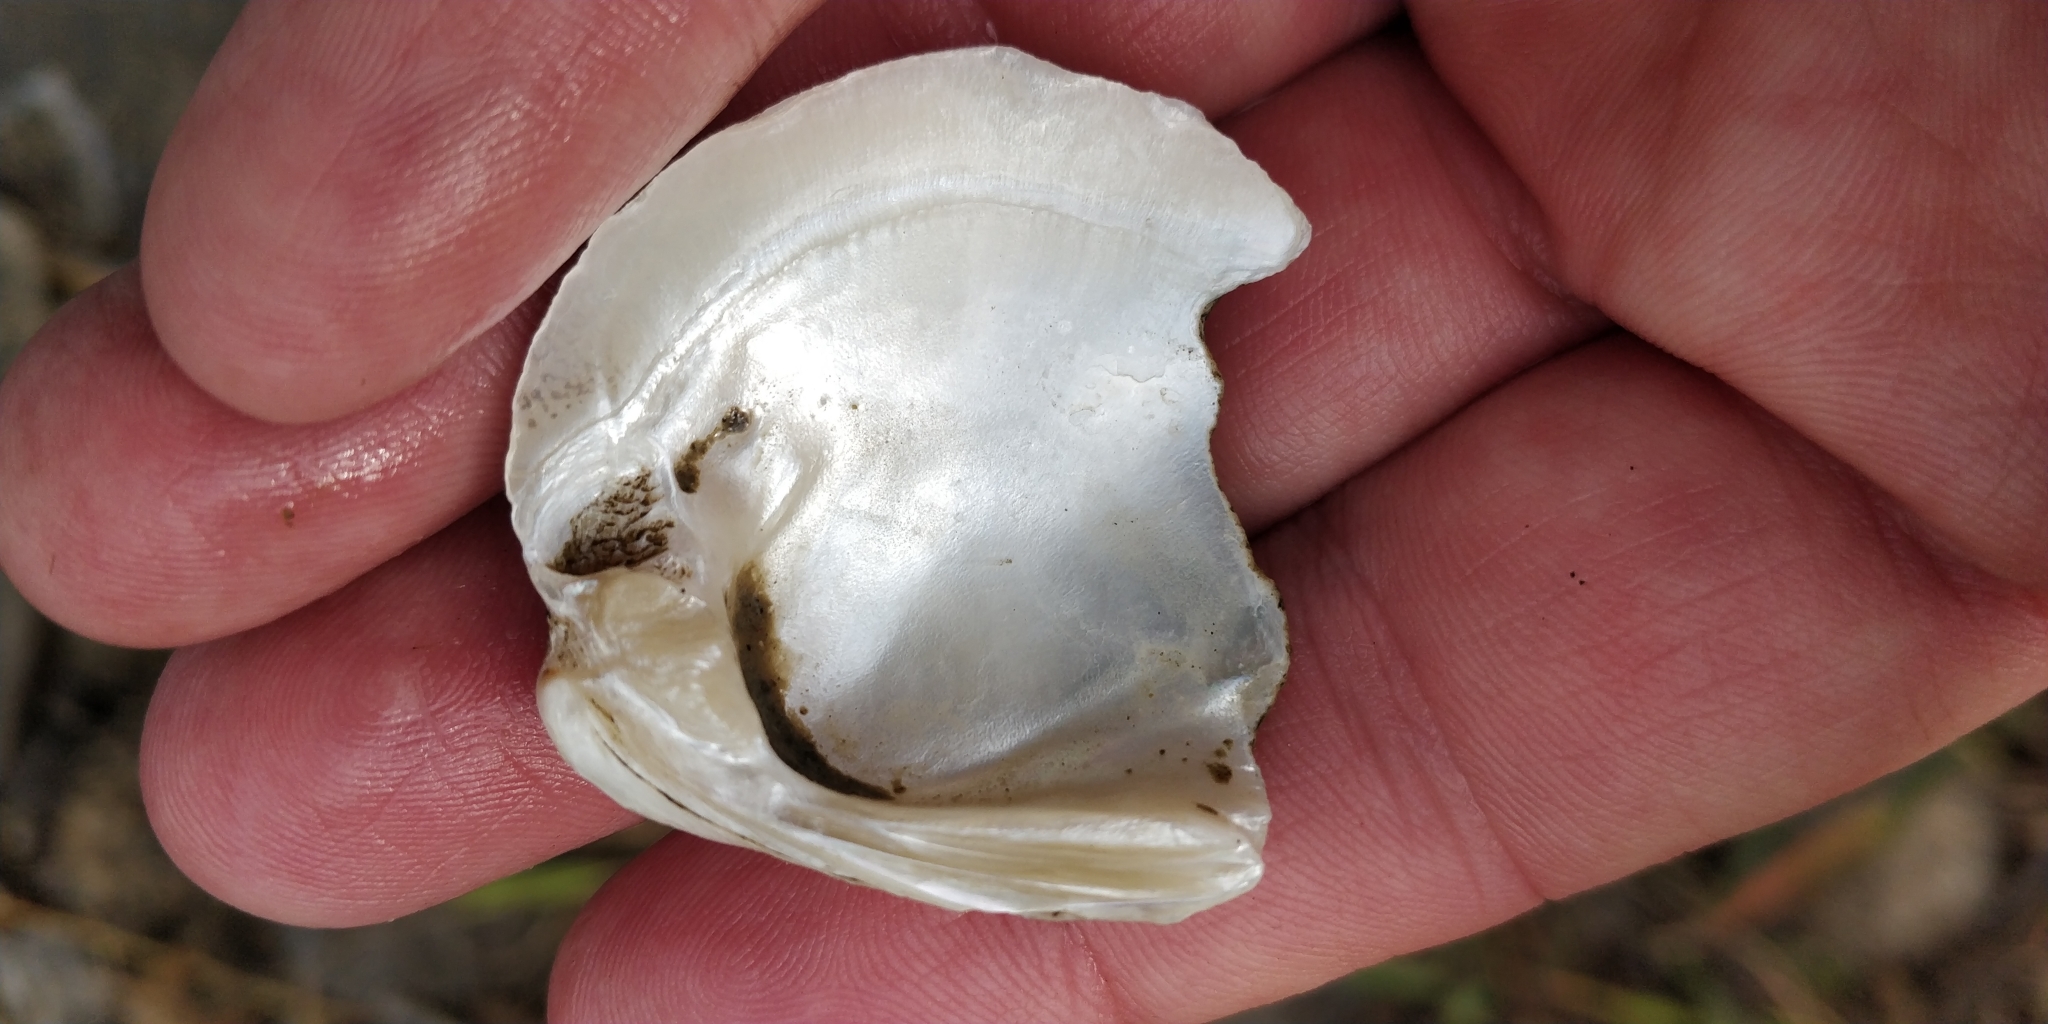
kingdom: Animalia
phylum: Mollusca
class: Bivalvia
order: Unionida
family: Unionidae
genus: Obovaria
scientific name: Obovaria olivaria
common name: Hickorynut
